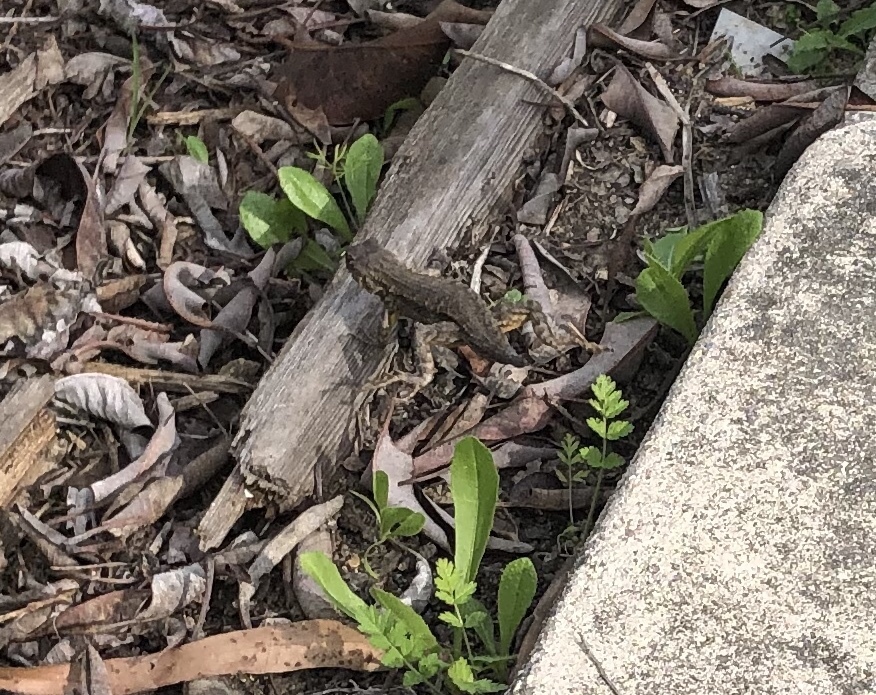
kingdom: Animalia
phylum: Chordata
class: Squamata
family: Phrynosomatidae
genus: Sceloporus
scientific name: Sceloporus occidentalis
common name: Western fence lizard
